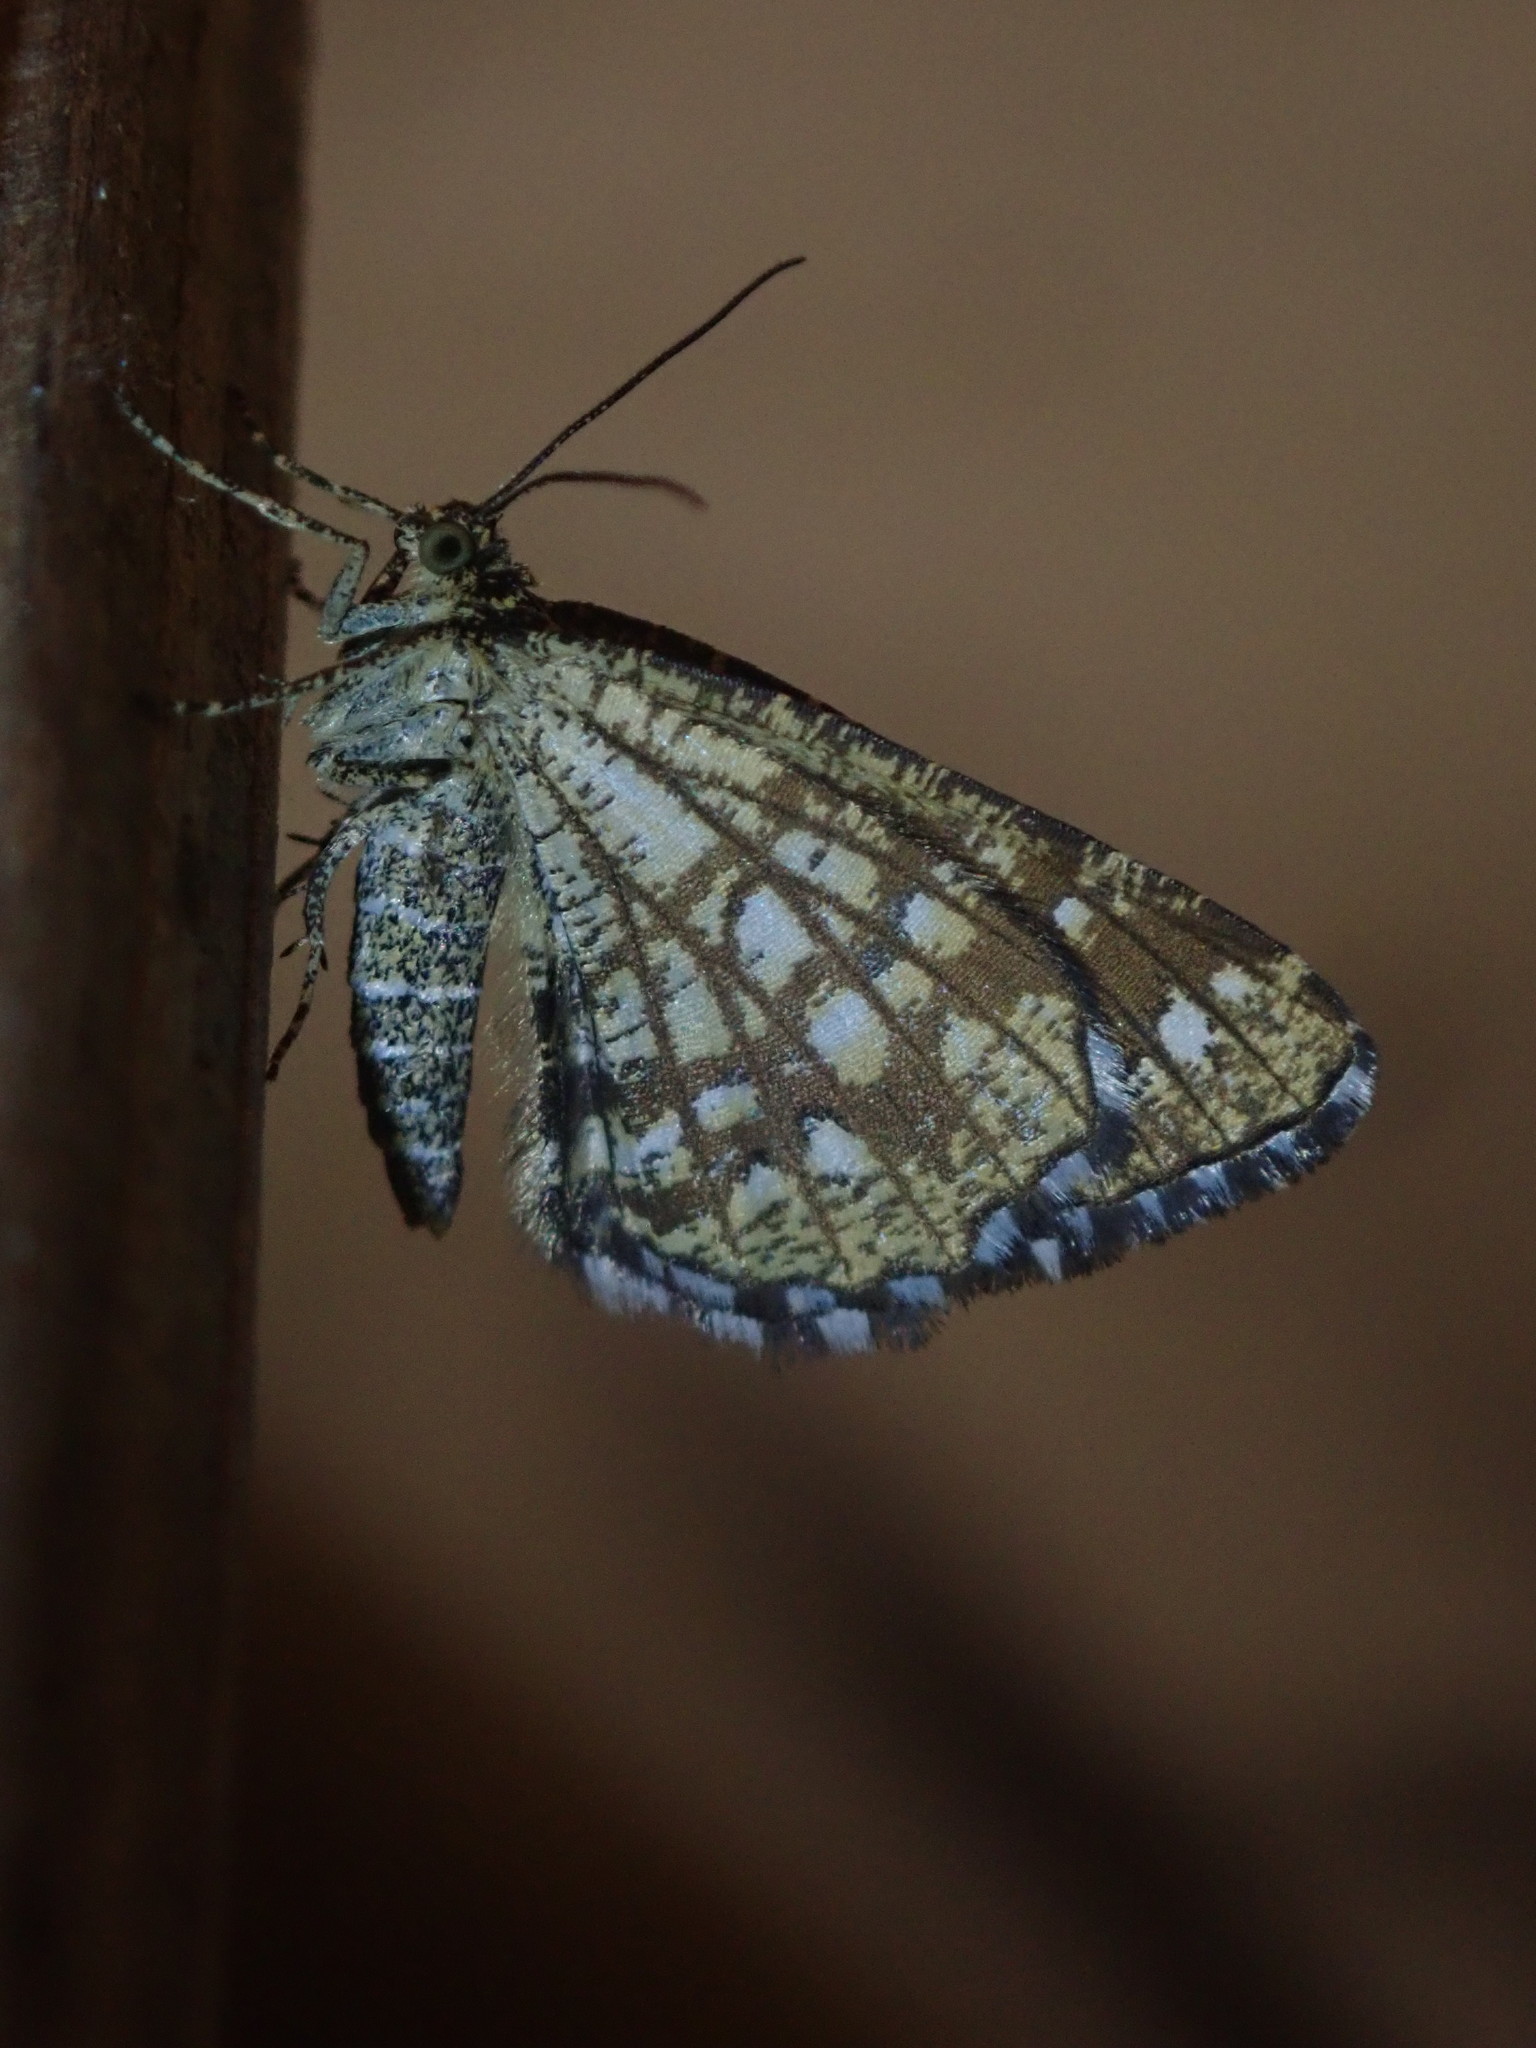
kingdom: Animalia
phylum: Arthropoda
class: Insecta
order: Lepidoptera
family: Geometridae
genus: Chiasmia
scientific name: Chiasmia clathrata
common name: Latticed heath
